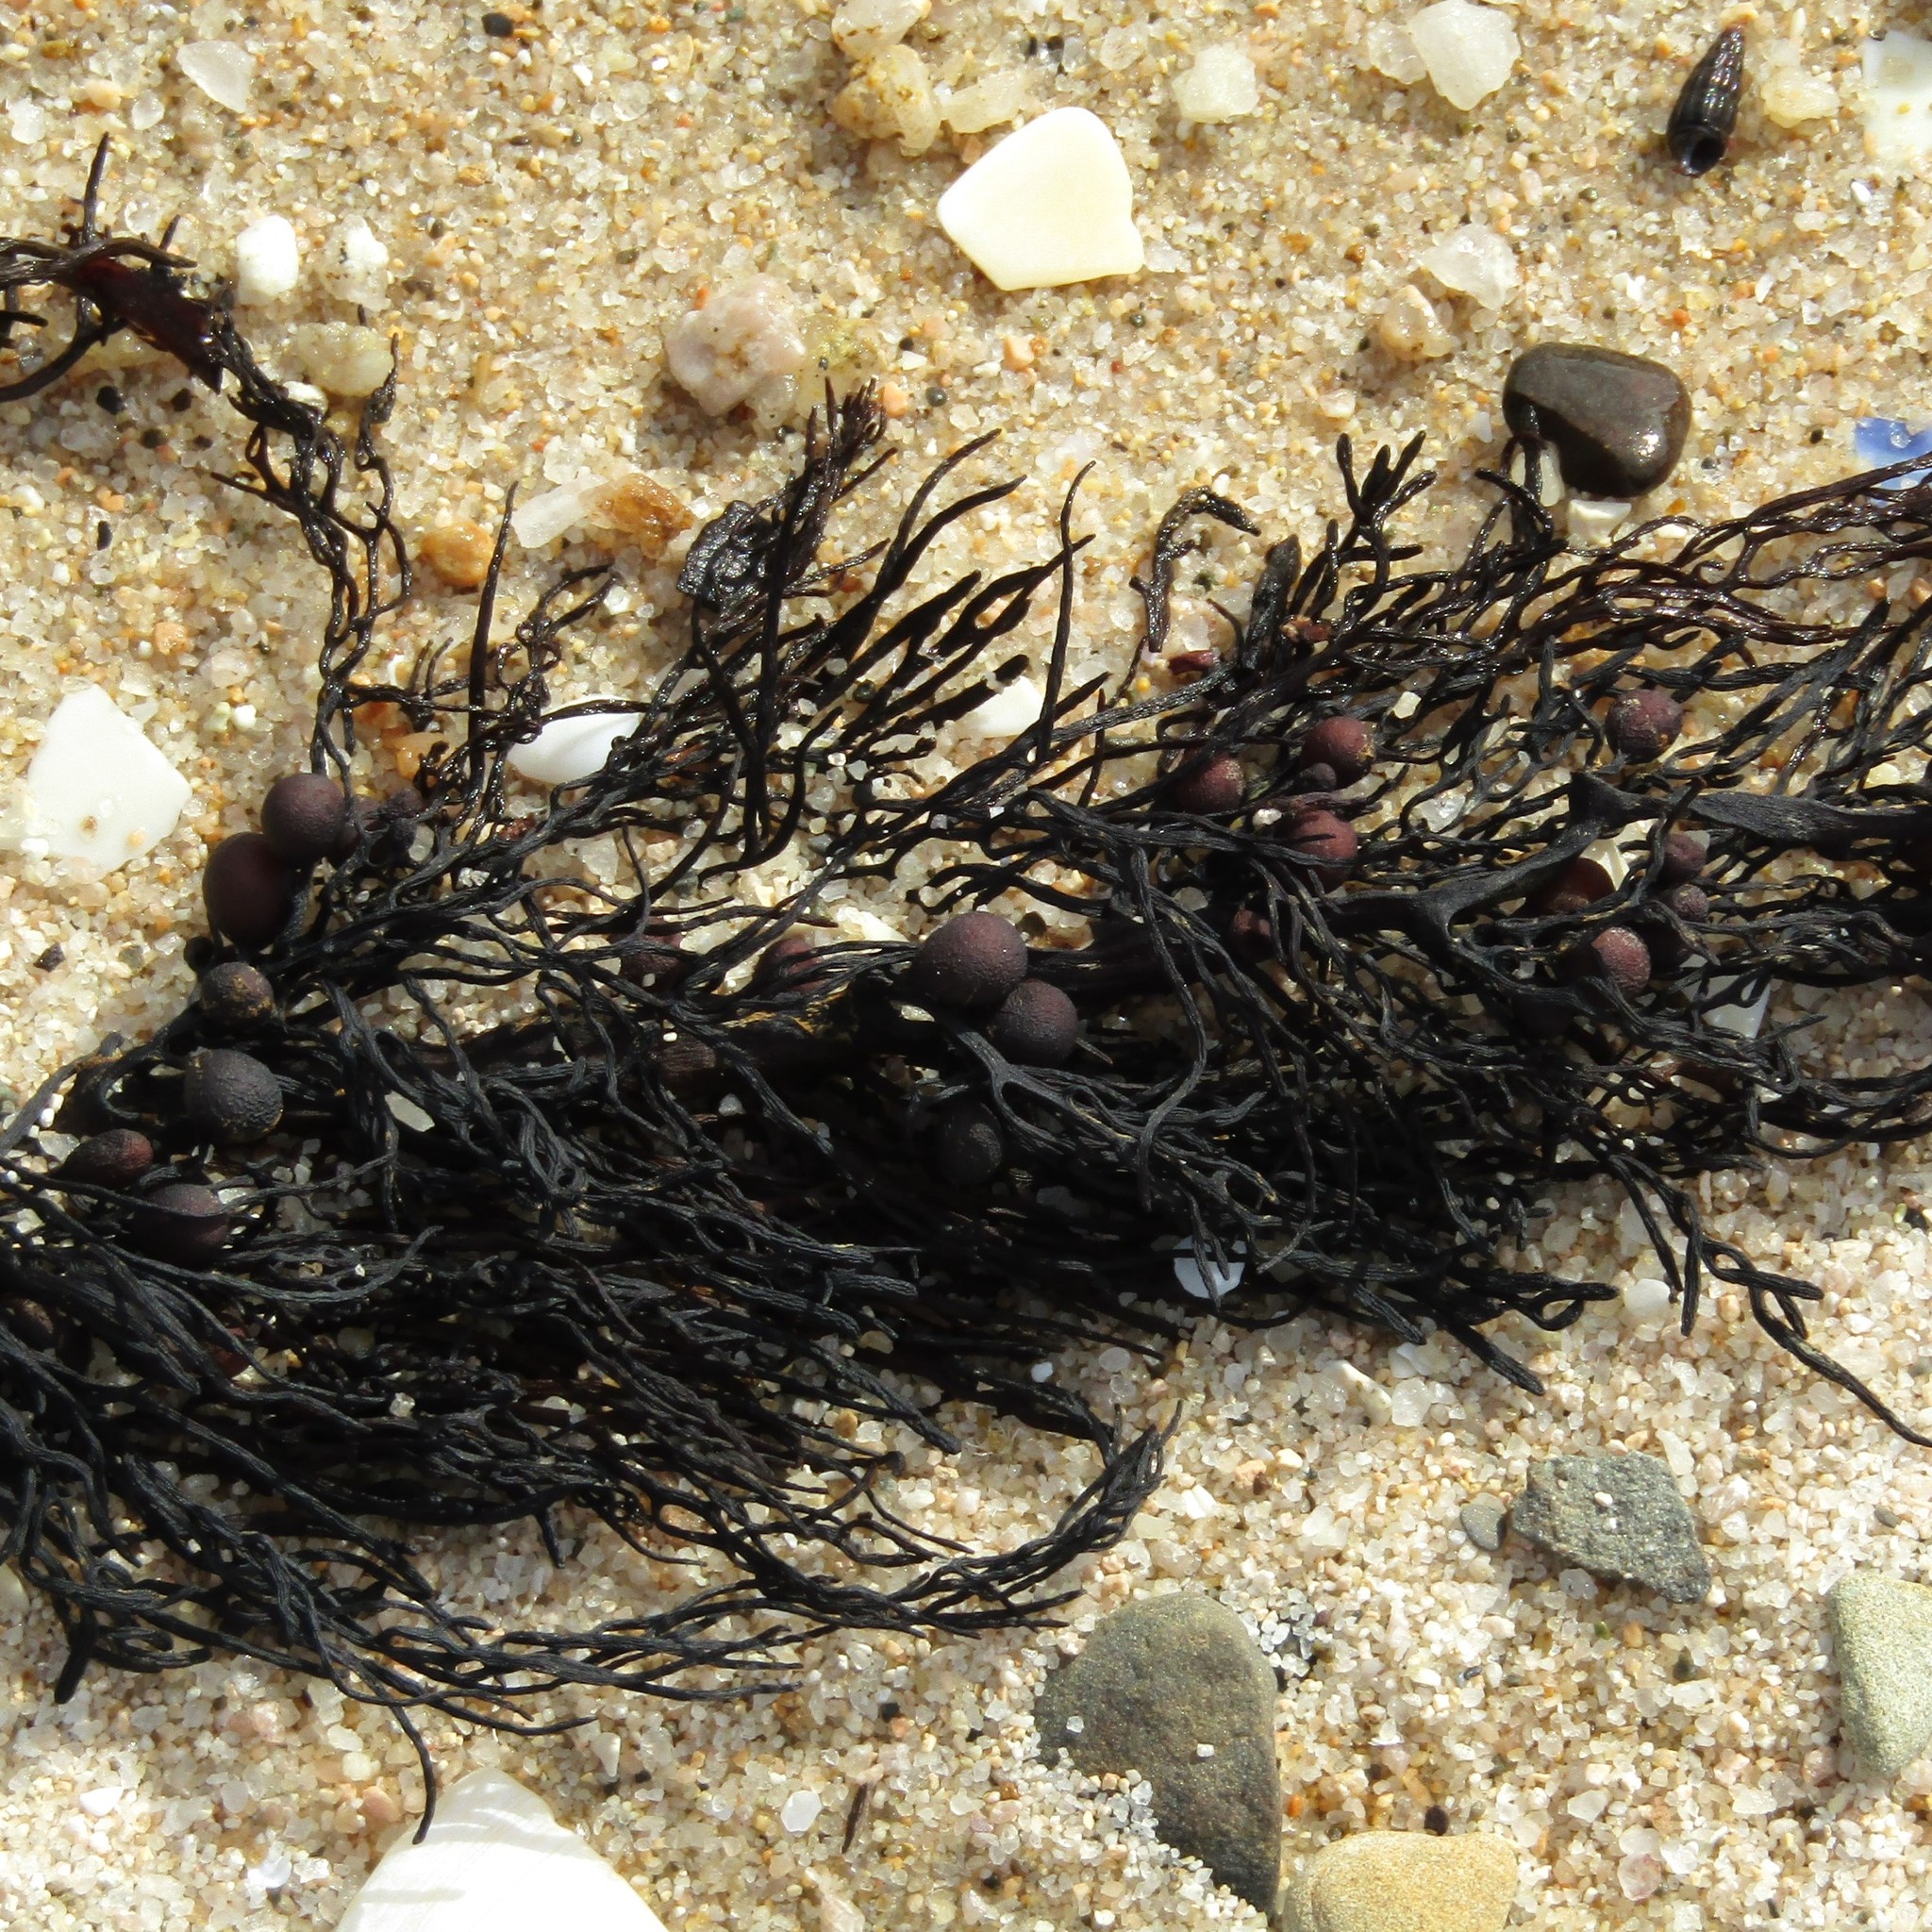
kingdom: Chromista
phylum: Ochrophyta
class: Phaeophyceae
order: Fucales
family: Sargassaceae
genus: Cystophora
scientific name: Cystophora retroflexa
